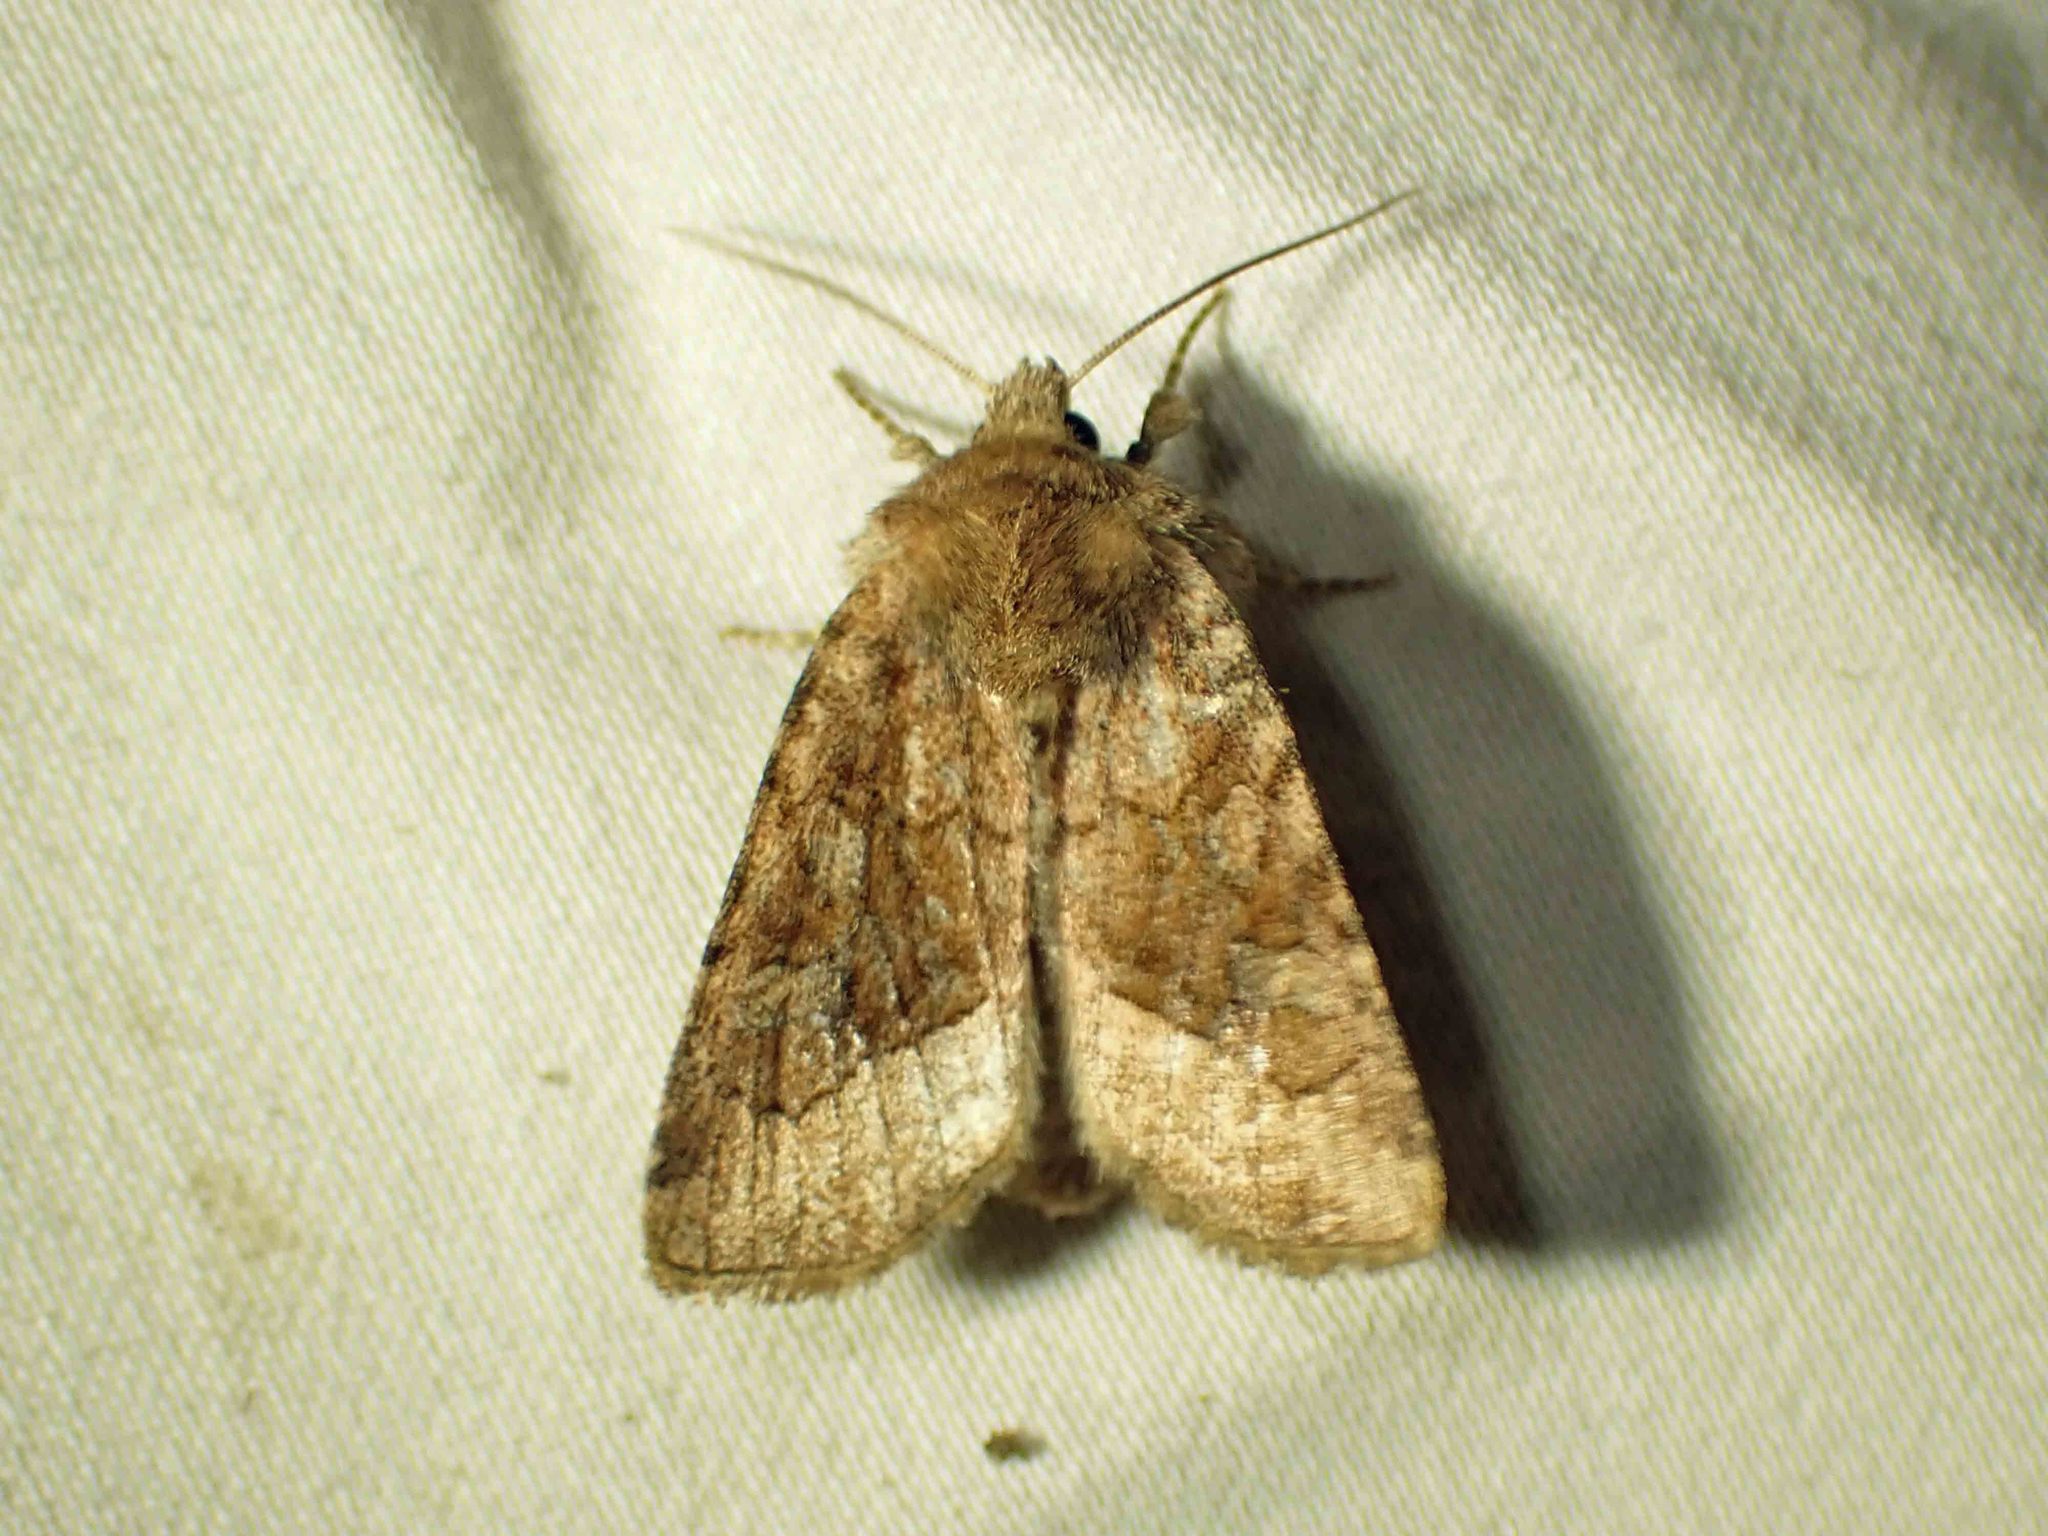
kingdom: Animalia
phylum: Arthropoda
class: Insecta
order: Lepidoptera
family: Noctuidae
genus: Lacinipolia
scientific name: Lacinipolia lorea
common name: Bridled arches moth
